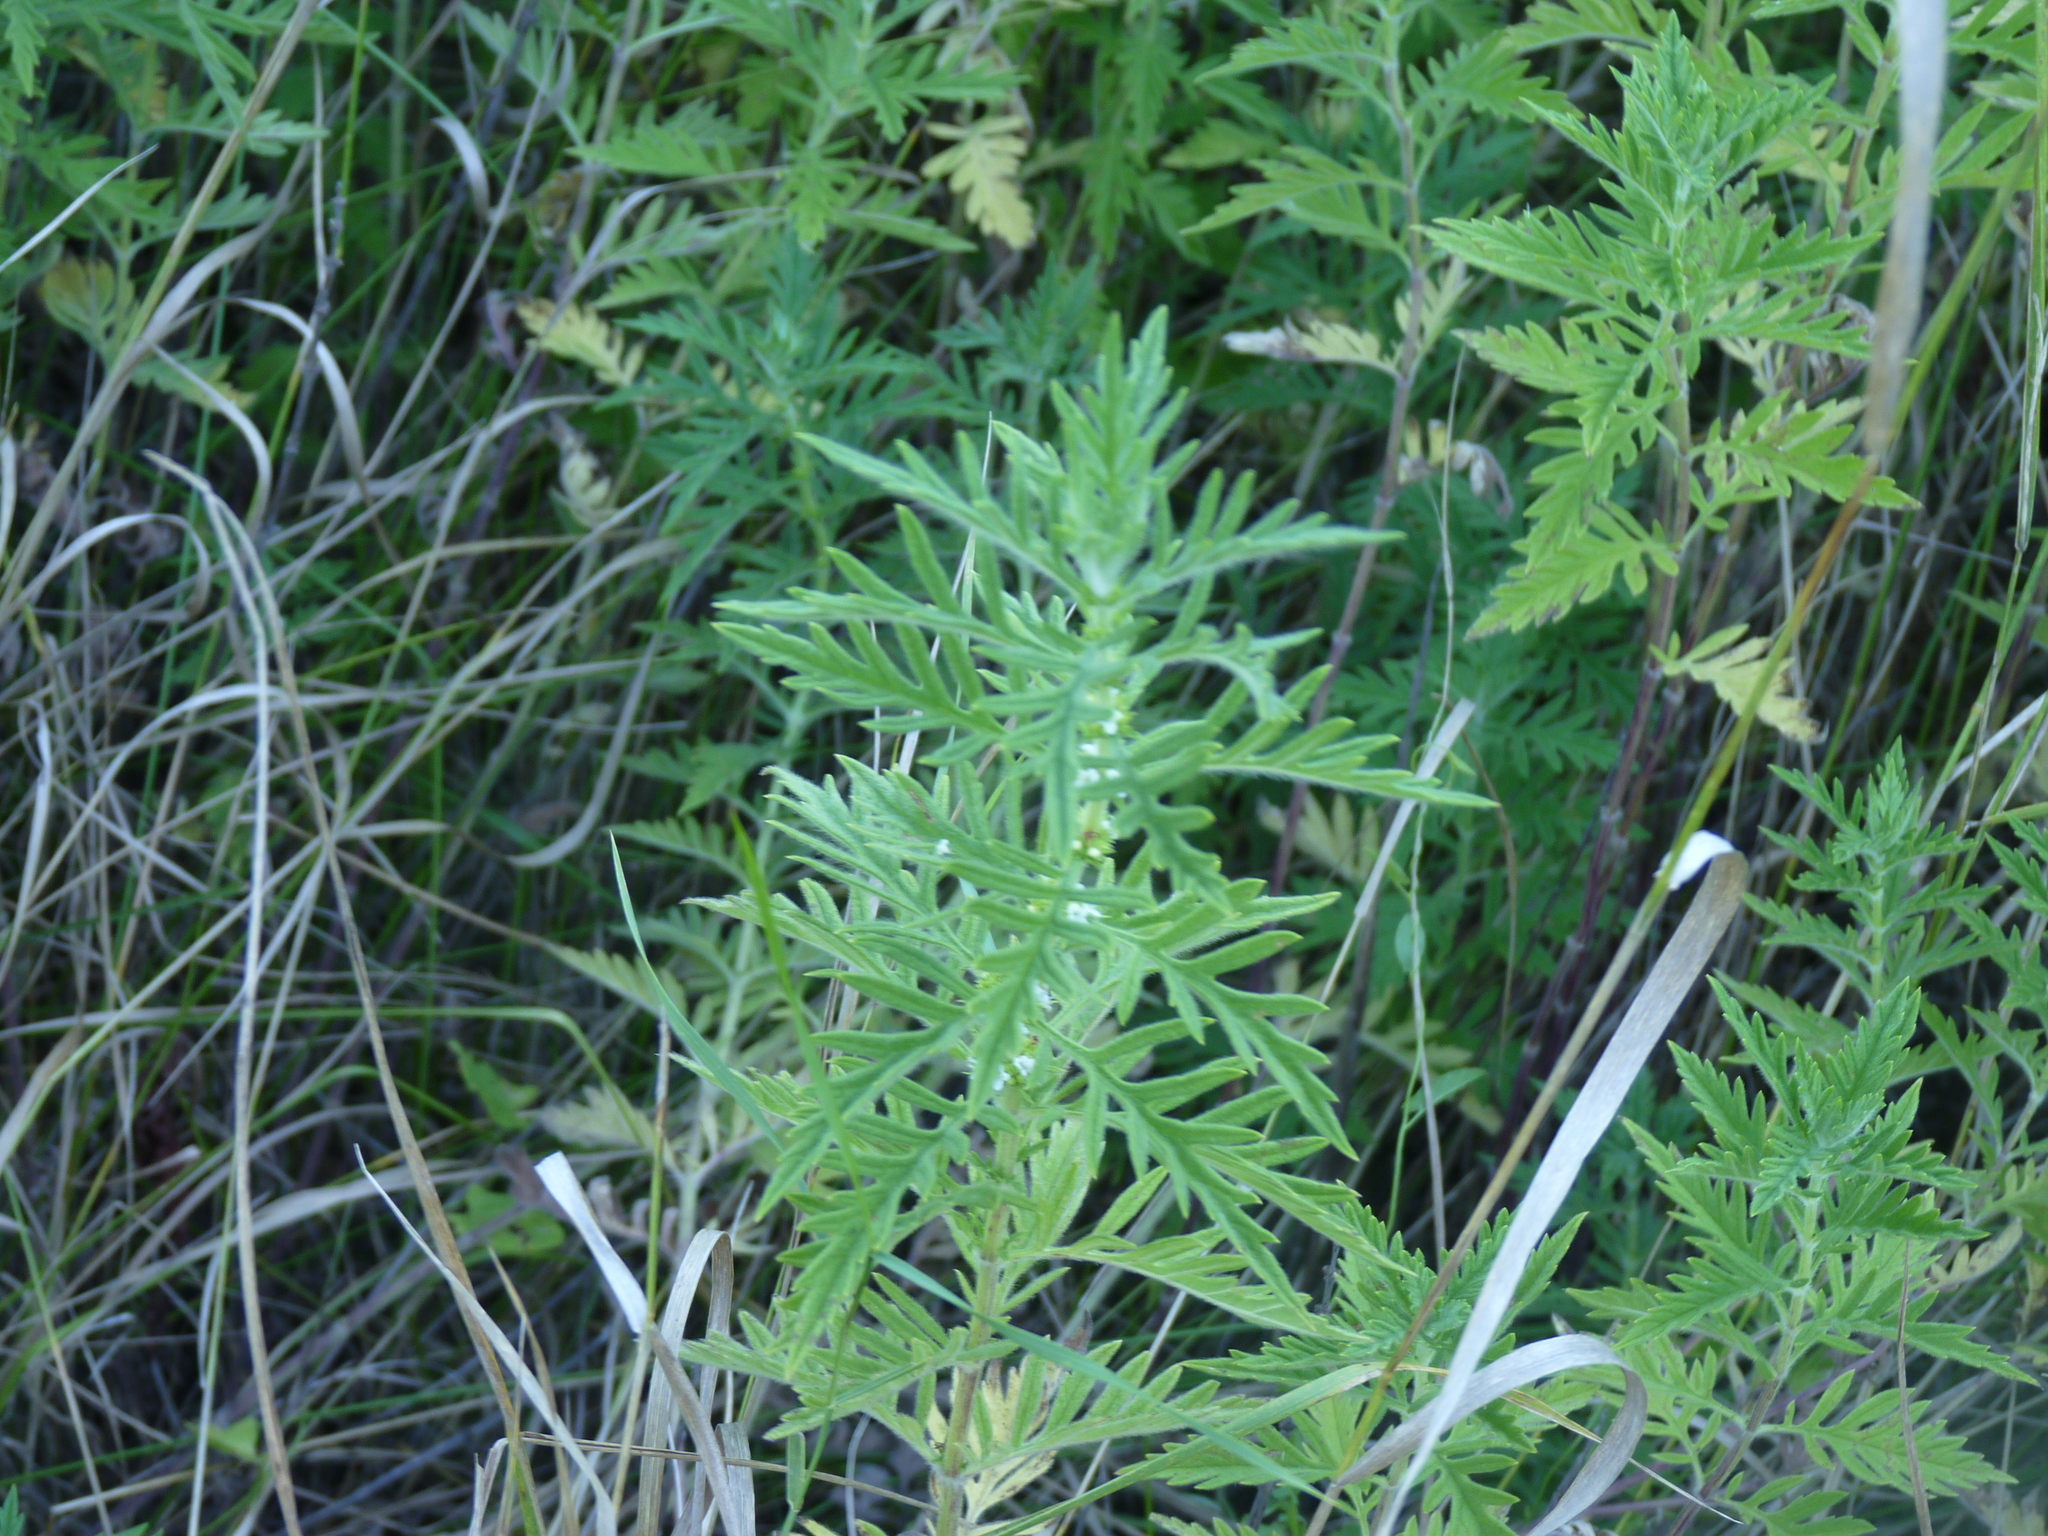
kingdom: Plantae
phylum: Tracheophyta
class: Magnoliopsida
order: Lamiales
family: Lamiaceae
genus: Lycopus
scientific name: Lycopus exaltatus
